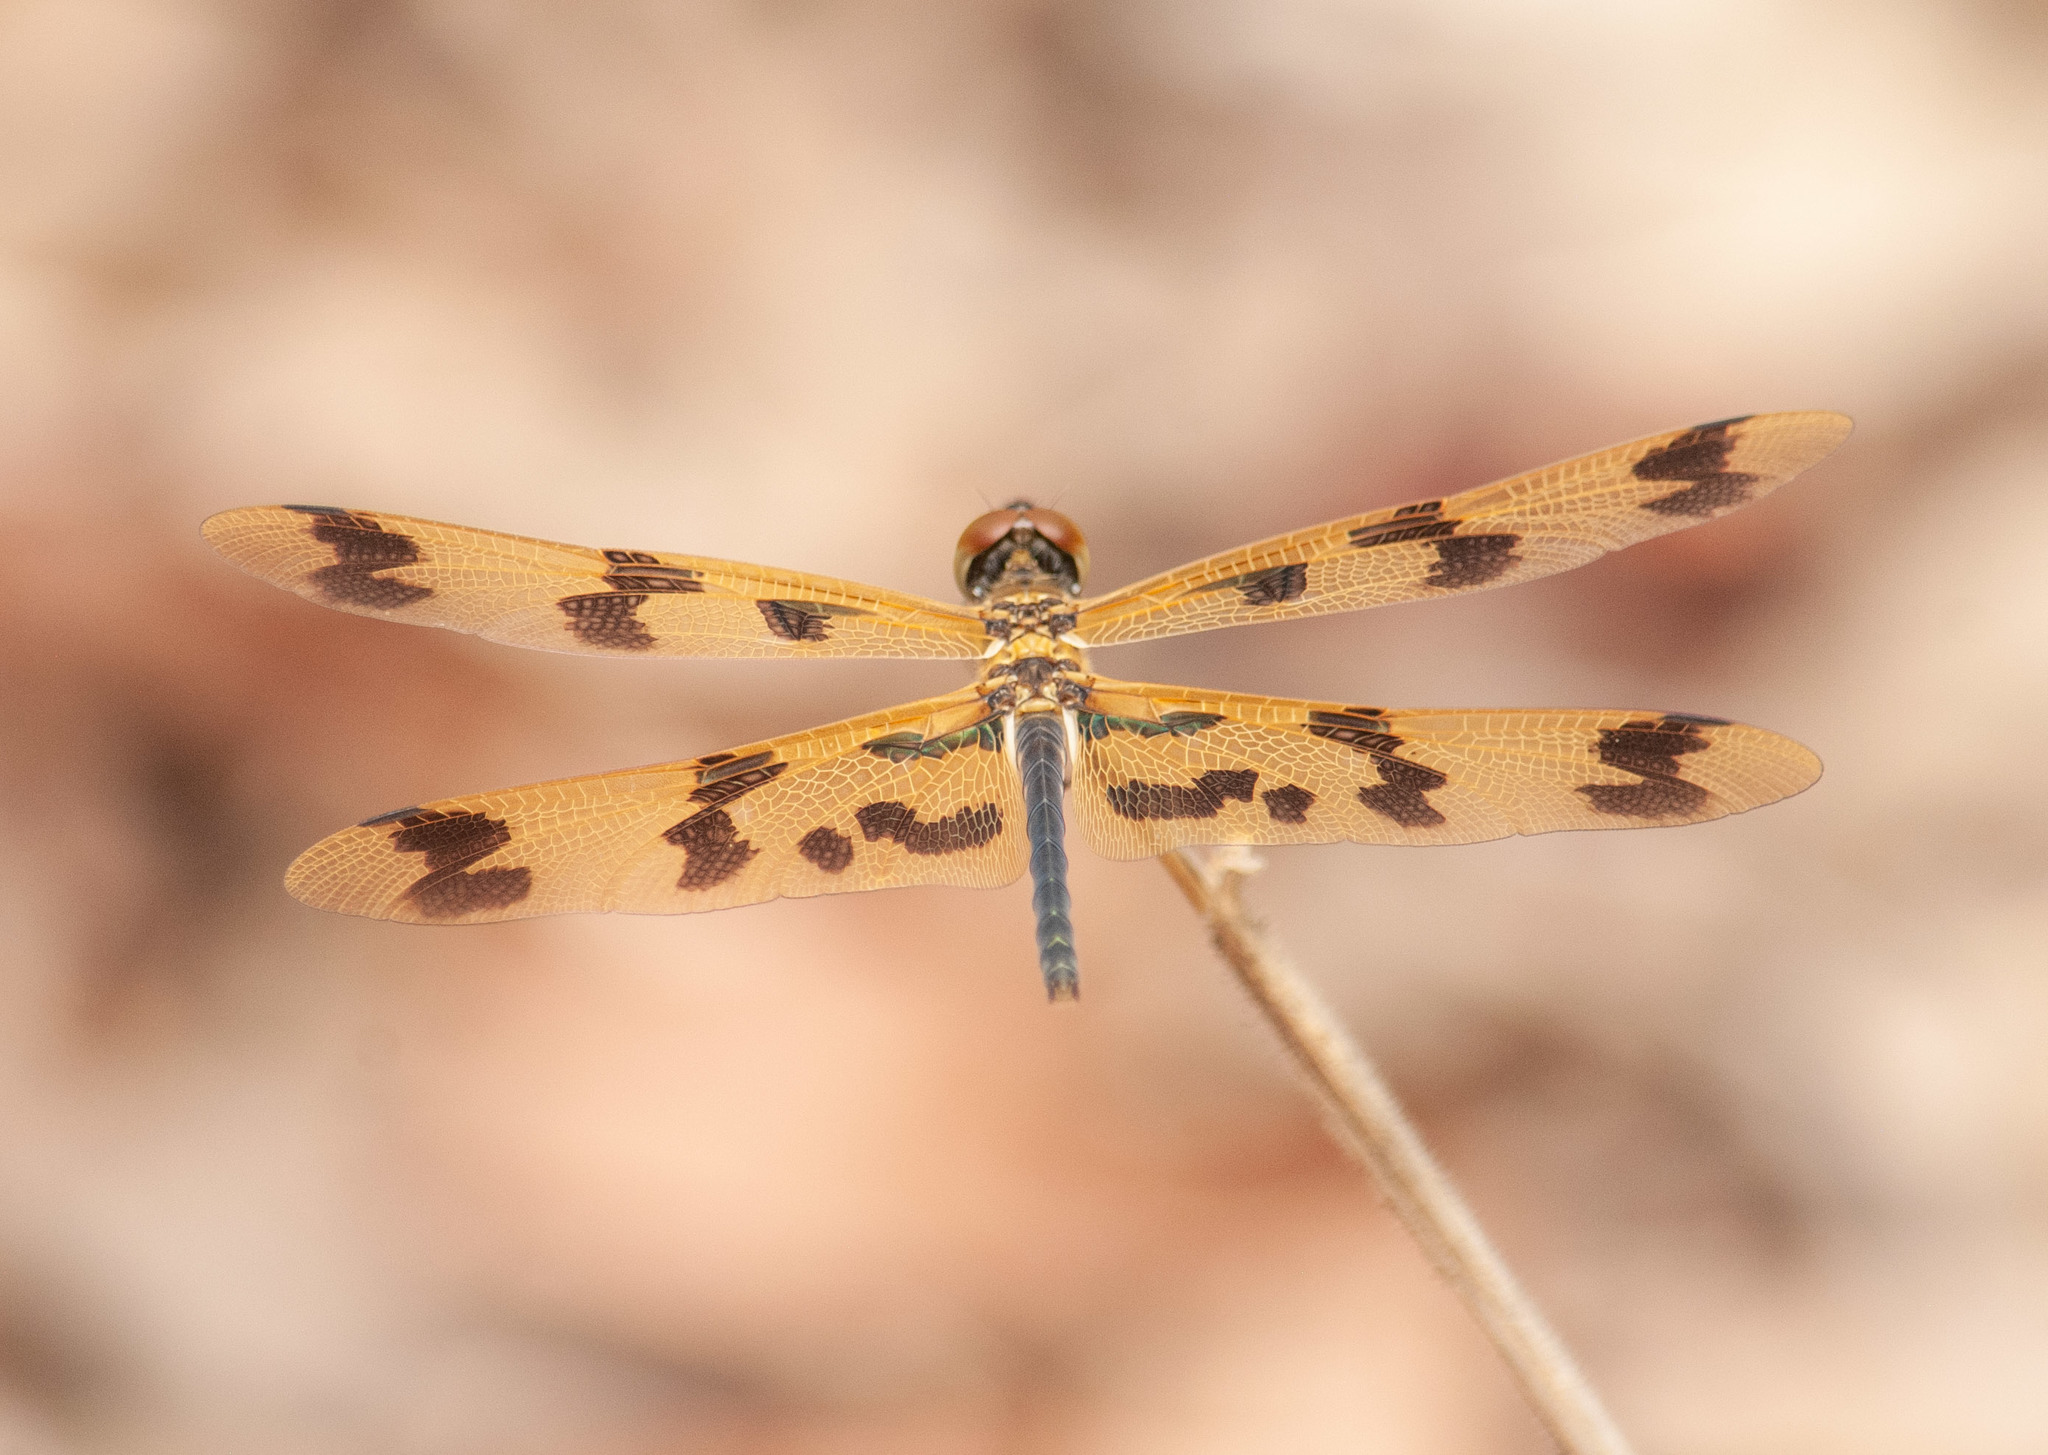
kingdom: Animalia
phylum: Arthropoda
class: Insecta
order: Odonata
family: Libellulidae
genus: Rhyothemis
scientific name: Rhyothemis graphiptera
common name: Graphic flutterer
